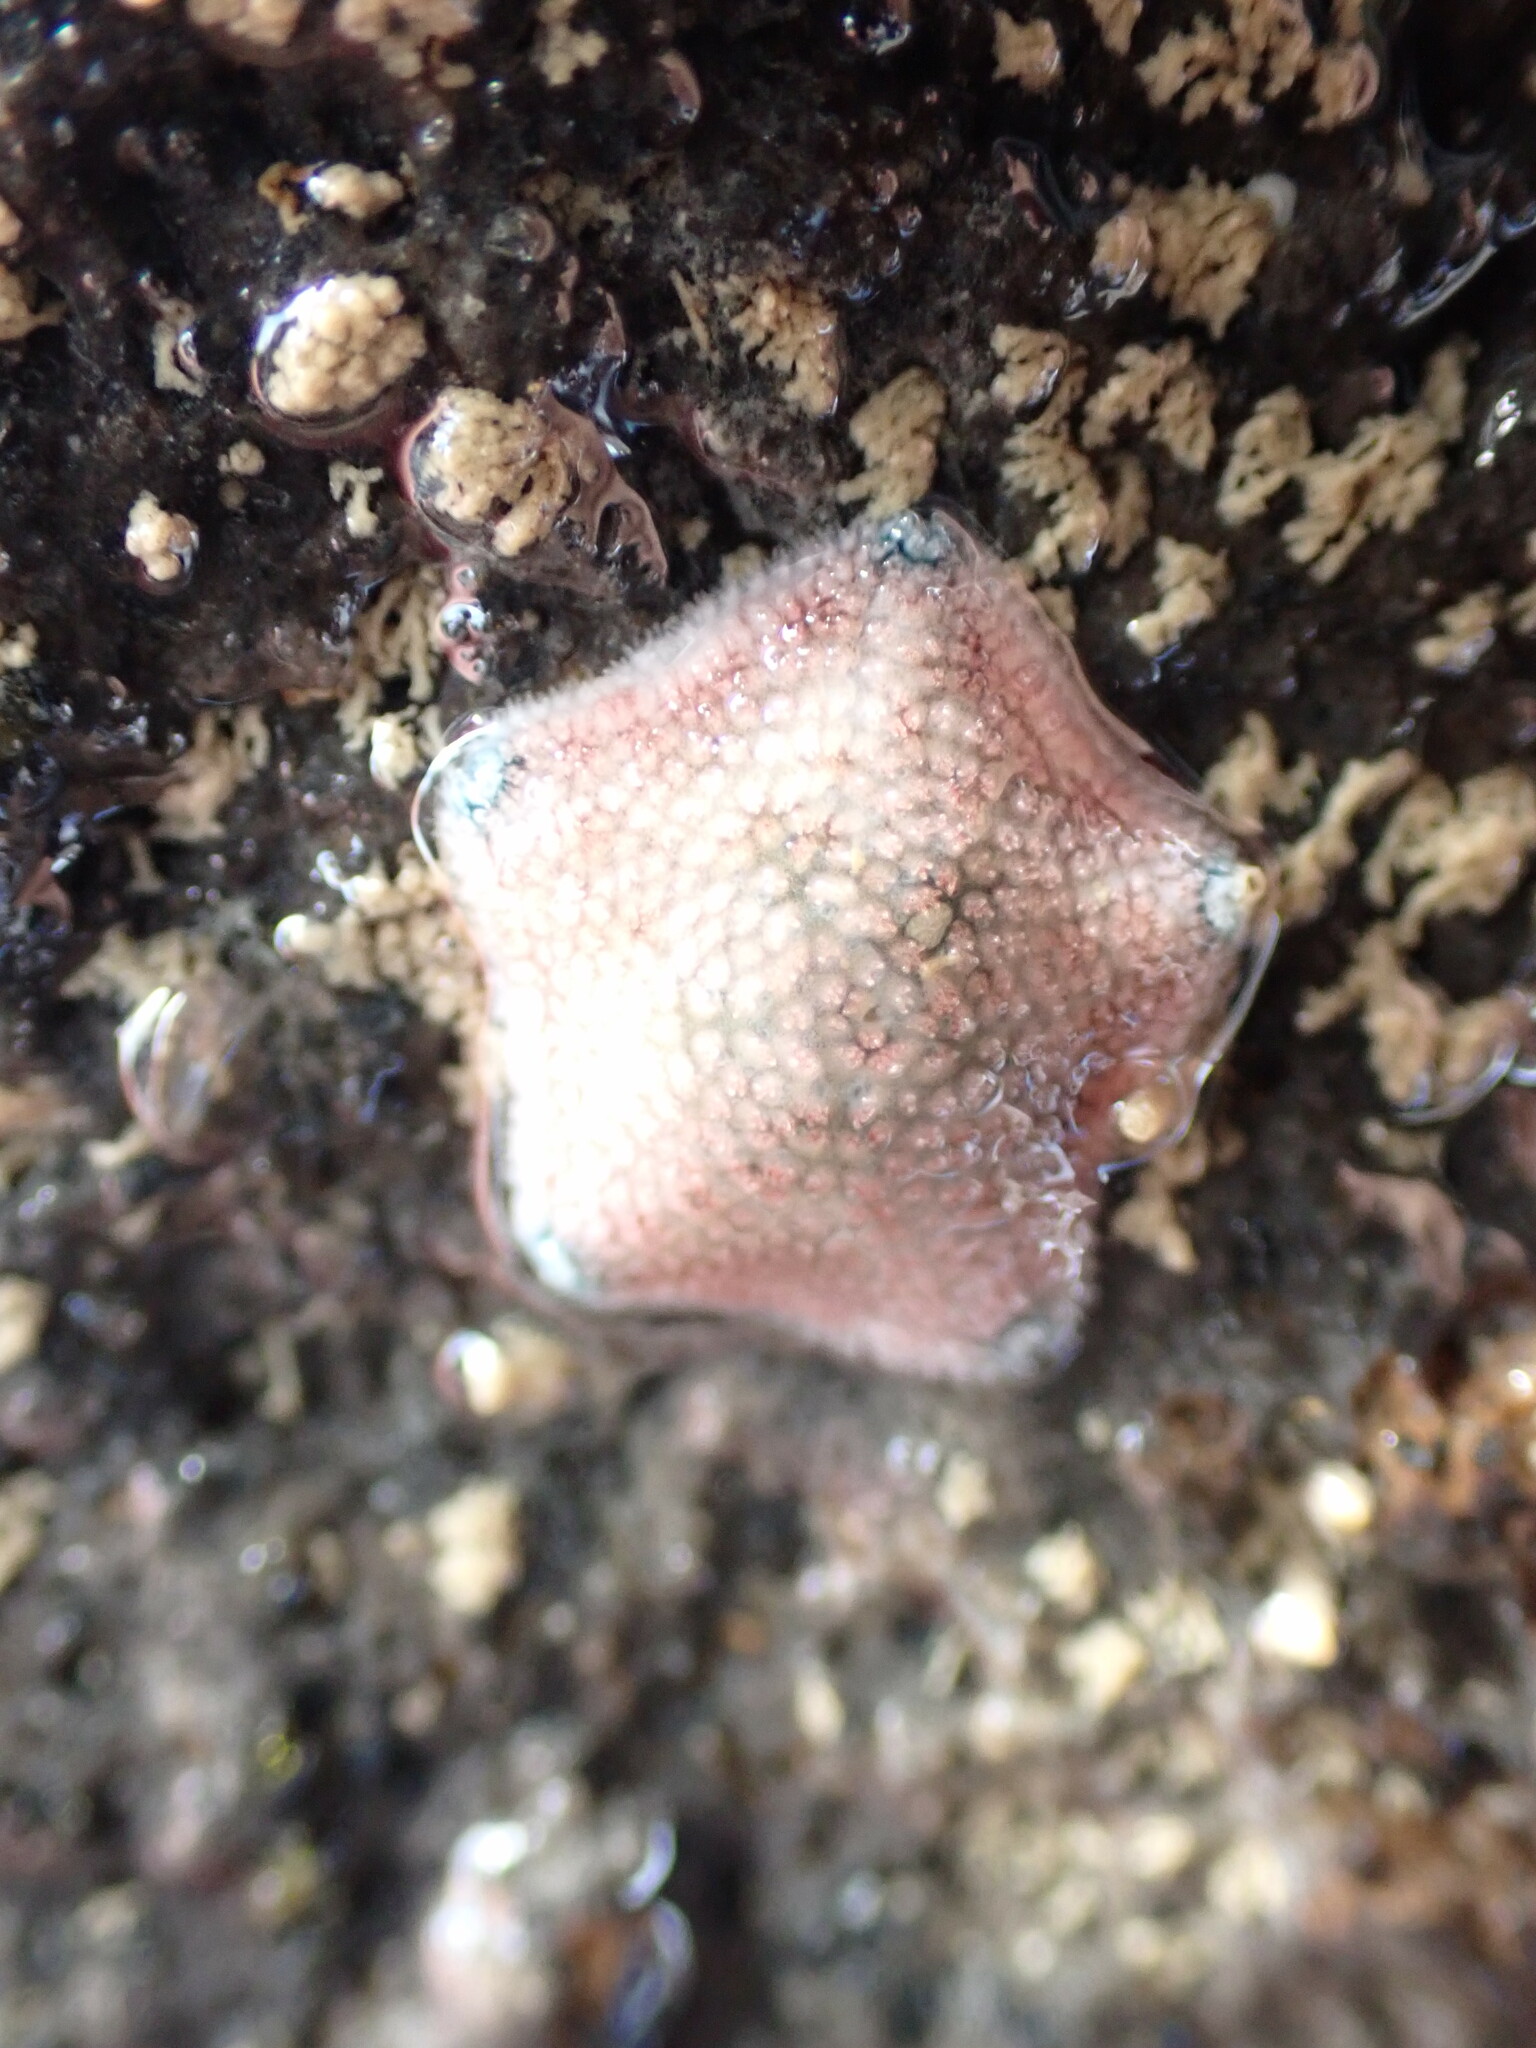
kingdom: Animalia
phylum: Echinodermata
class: Asteroidea
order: Valvatida
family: Asterinidae
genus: Patiriella
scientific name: Patiriella regularis
